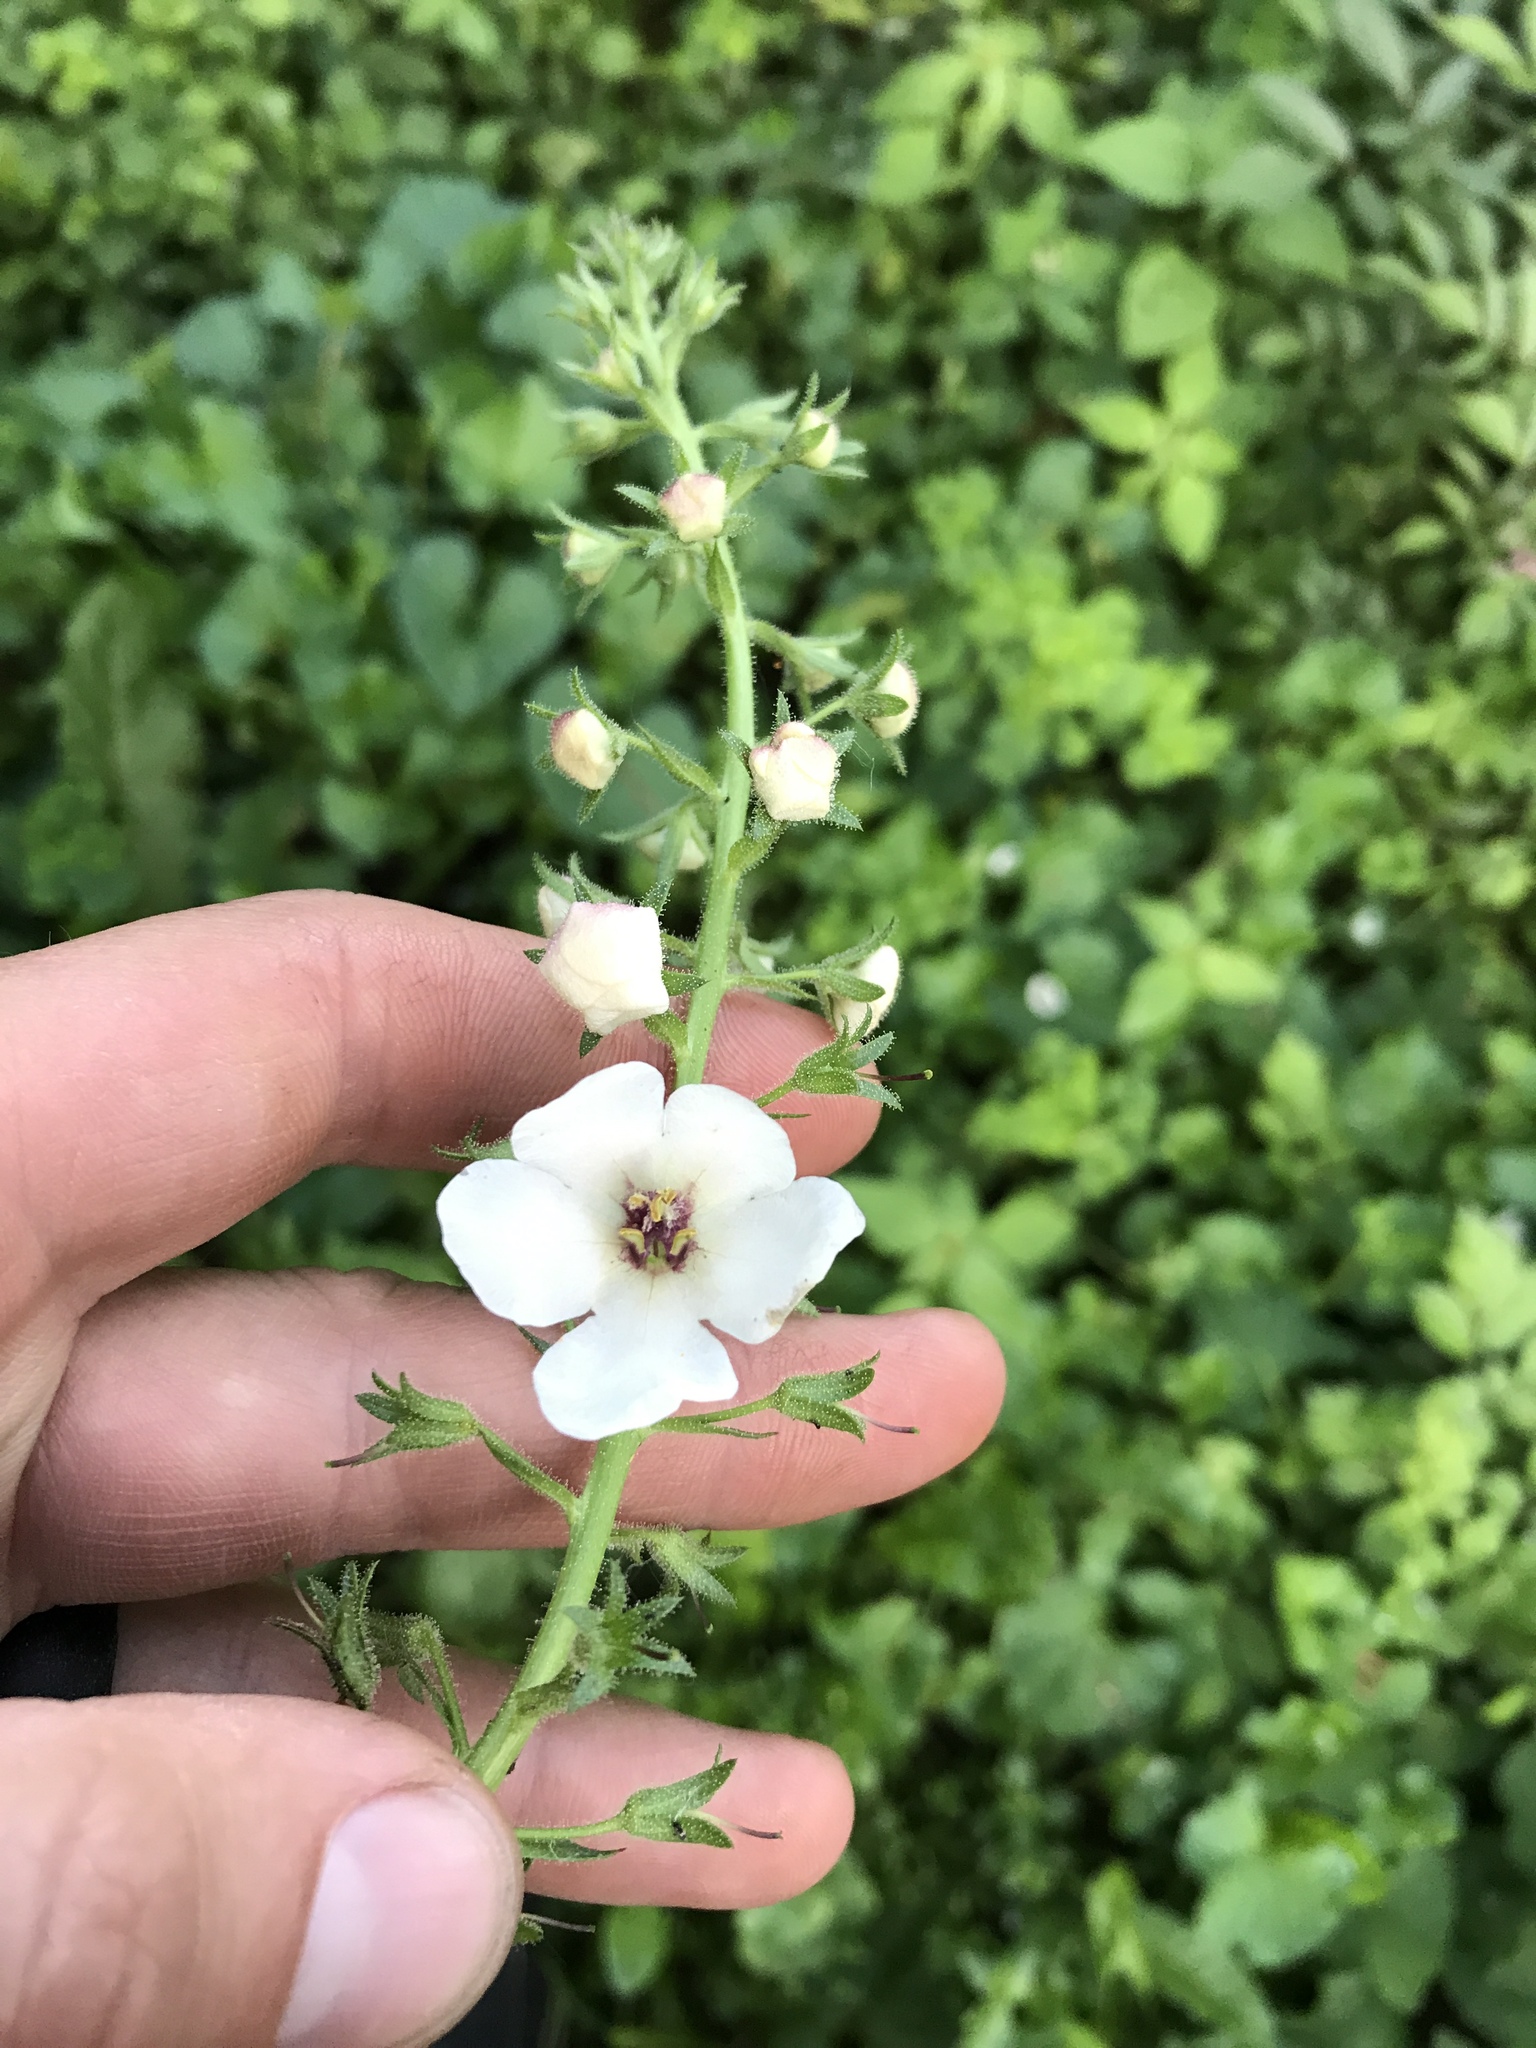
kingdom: Plantae
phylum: Tracheophyta
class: Magnoliopsida
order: Lamiales
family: Scrophulariaceae
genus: Verbascum
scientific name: Verbascum blattaria
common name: Moth mullein
